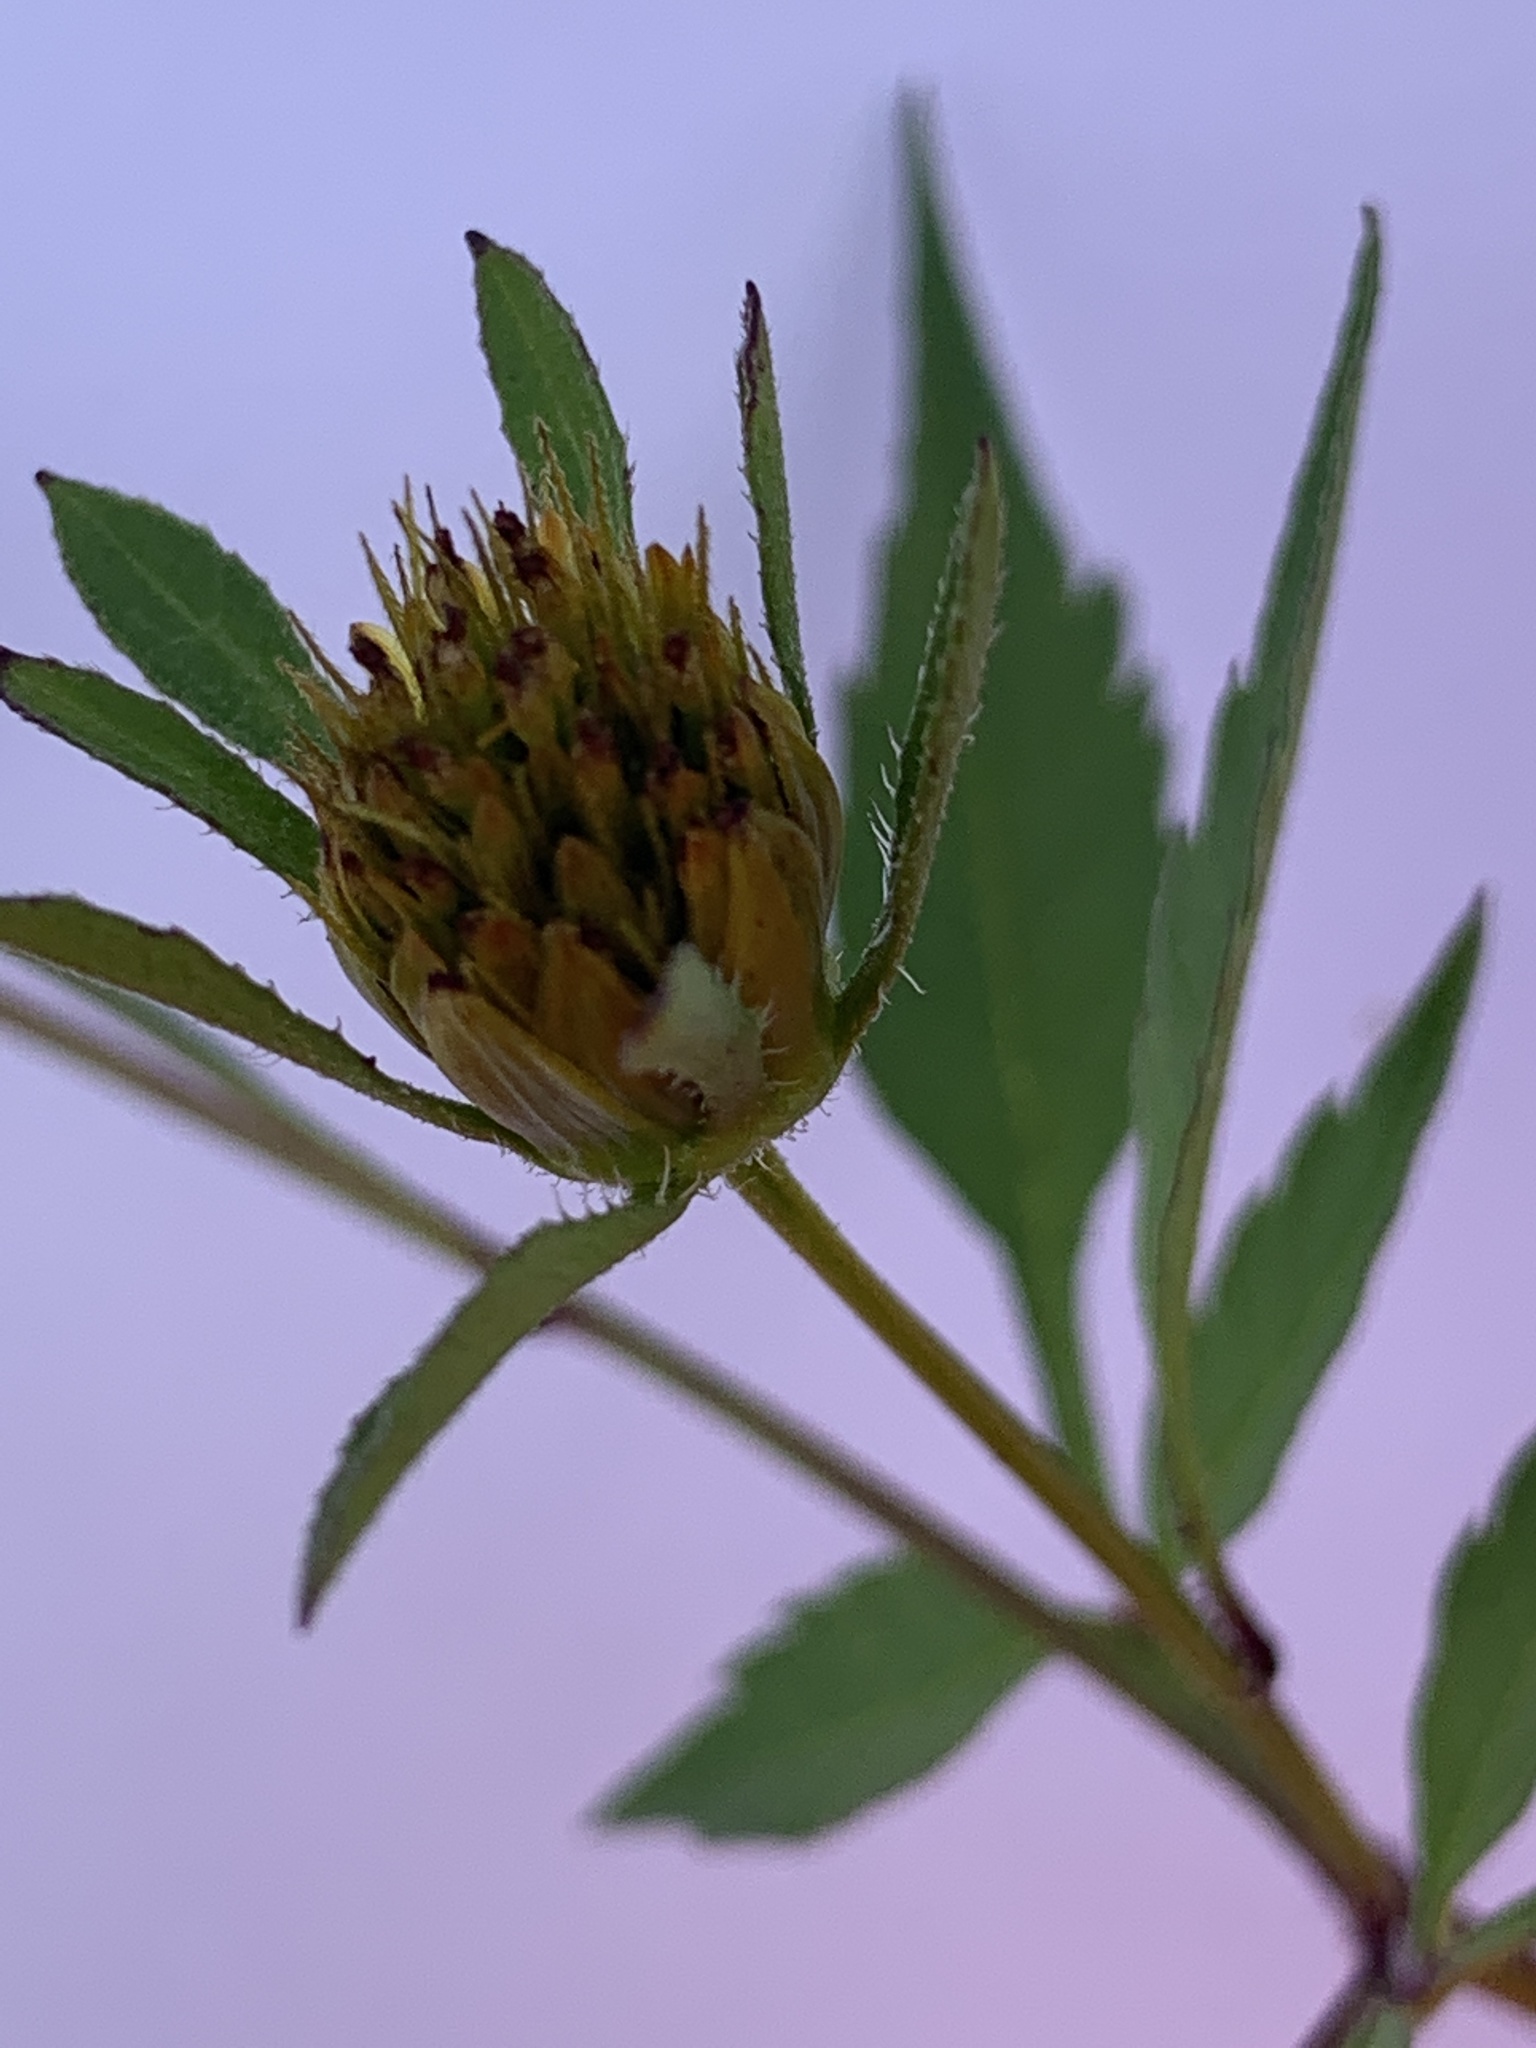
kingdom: Plantae
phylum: Tracheophyta
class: Magnoliopsida
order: Asterales
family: Asteraceae
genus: Bidens
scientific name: Bidens frondosa
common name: Beggarticks
